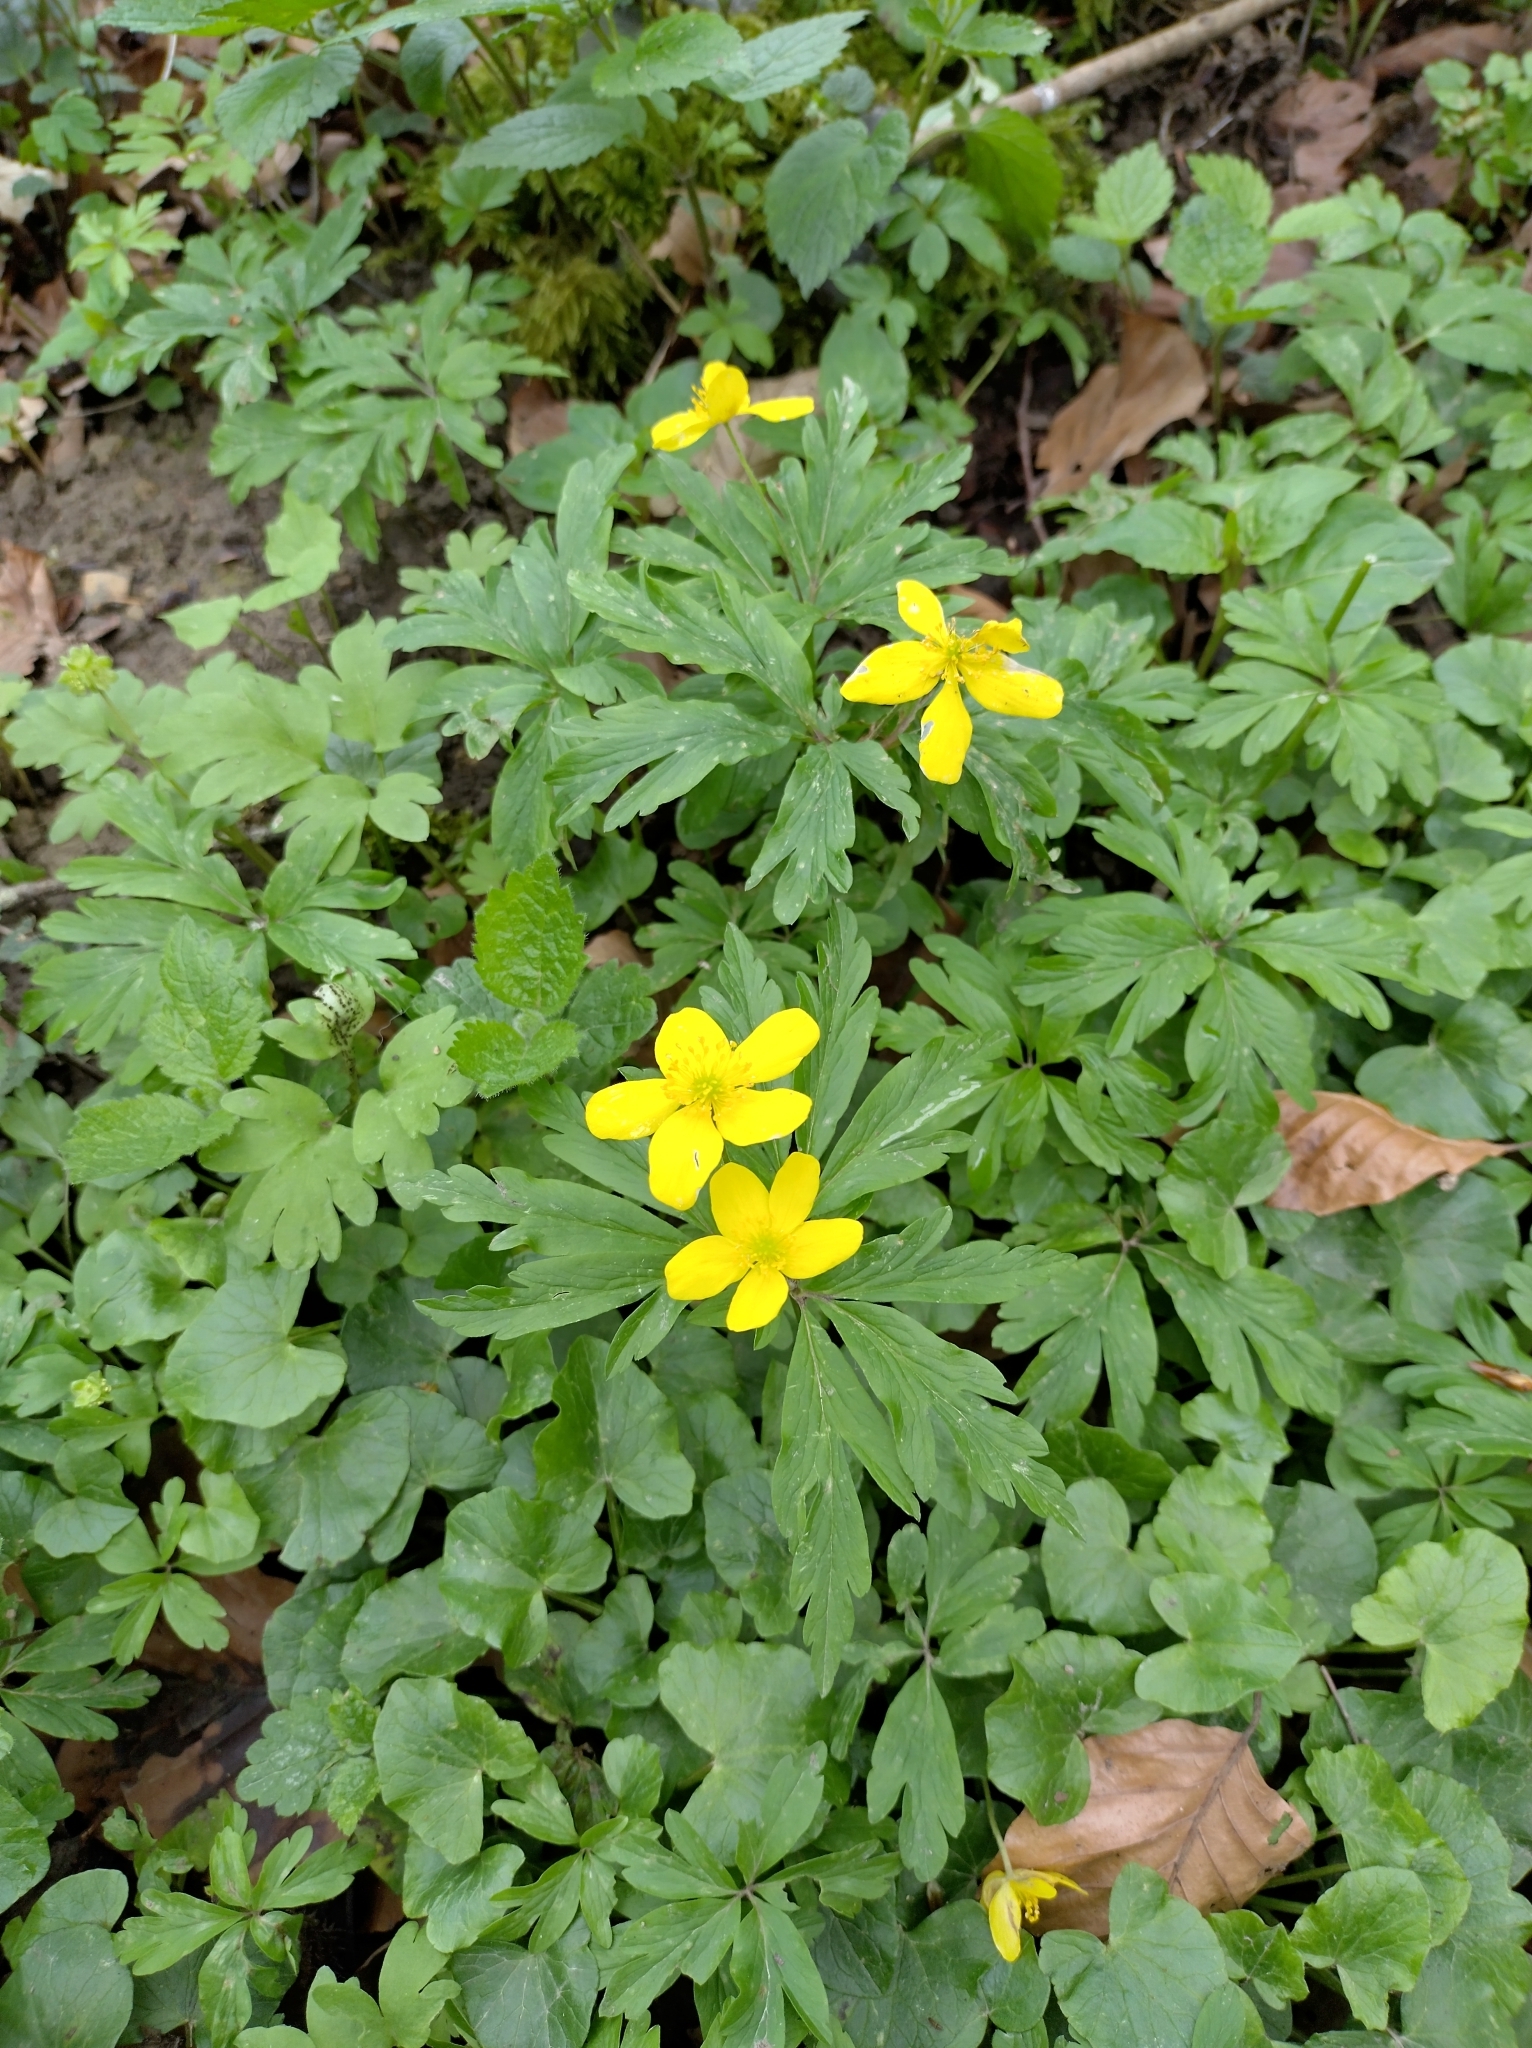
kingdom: Plantae
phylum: Tracheophyta
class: Magnoliopsida
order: Ranunculales
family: Ranunculaceae
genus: Anemone
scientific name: Anemone ranunculoides
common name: Yellow anemone
